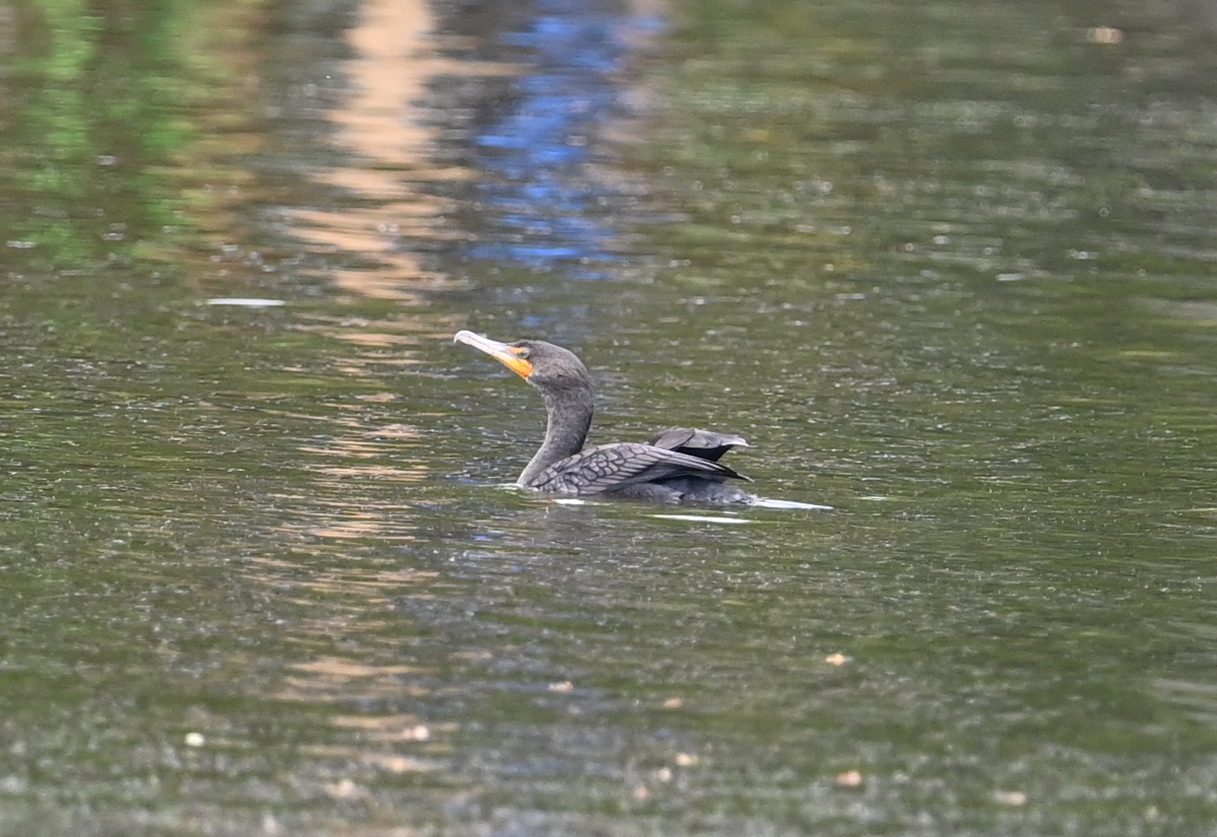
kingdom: Animalia
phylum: Chordata
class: Aves
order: Suliformes
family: Phalacrocoracidae
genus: Phalacrocorax
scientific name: Phalacrocorax auritus
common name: Double-crested cormorant
